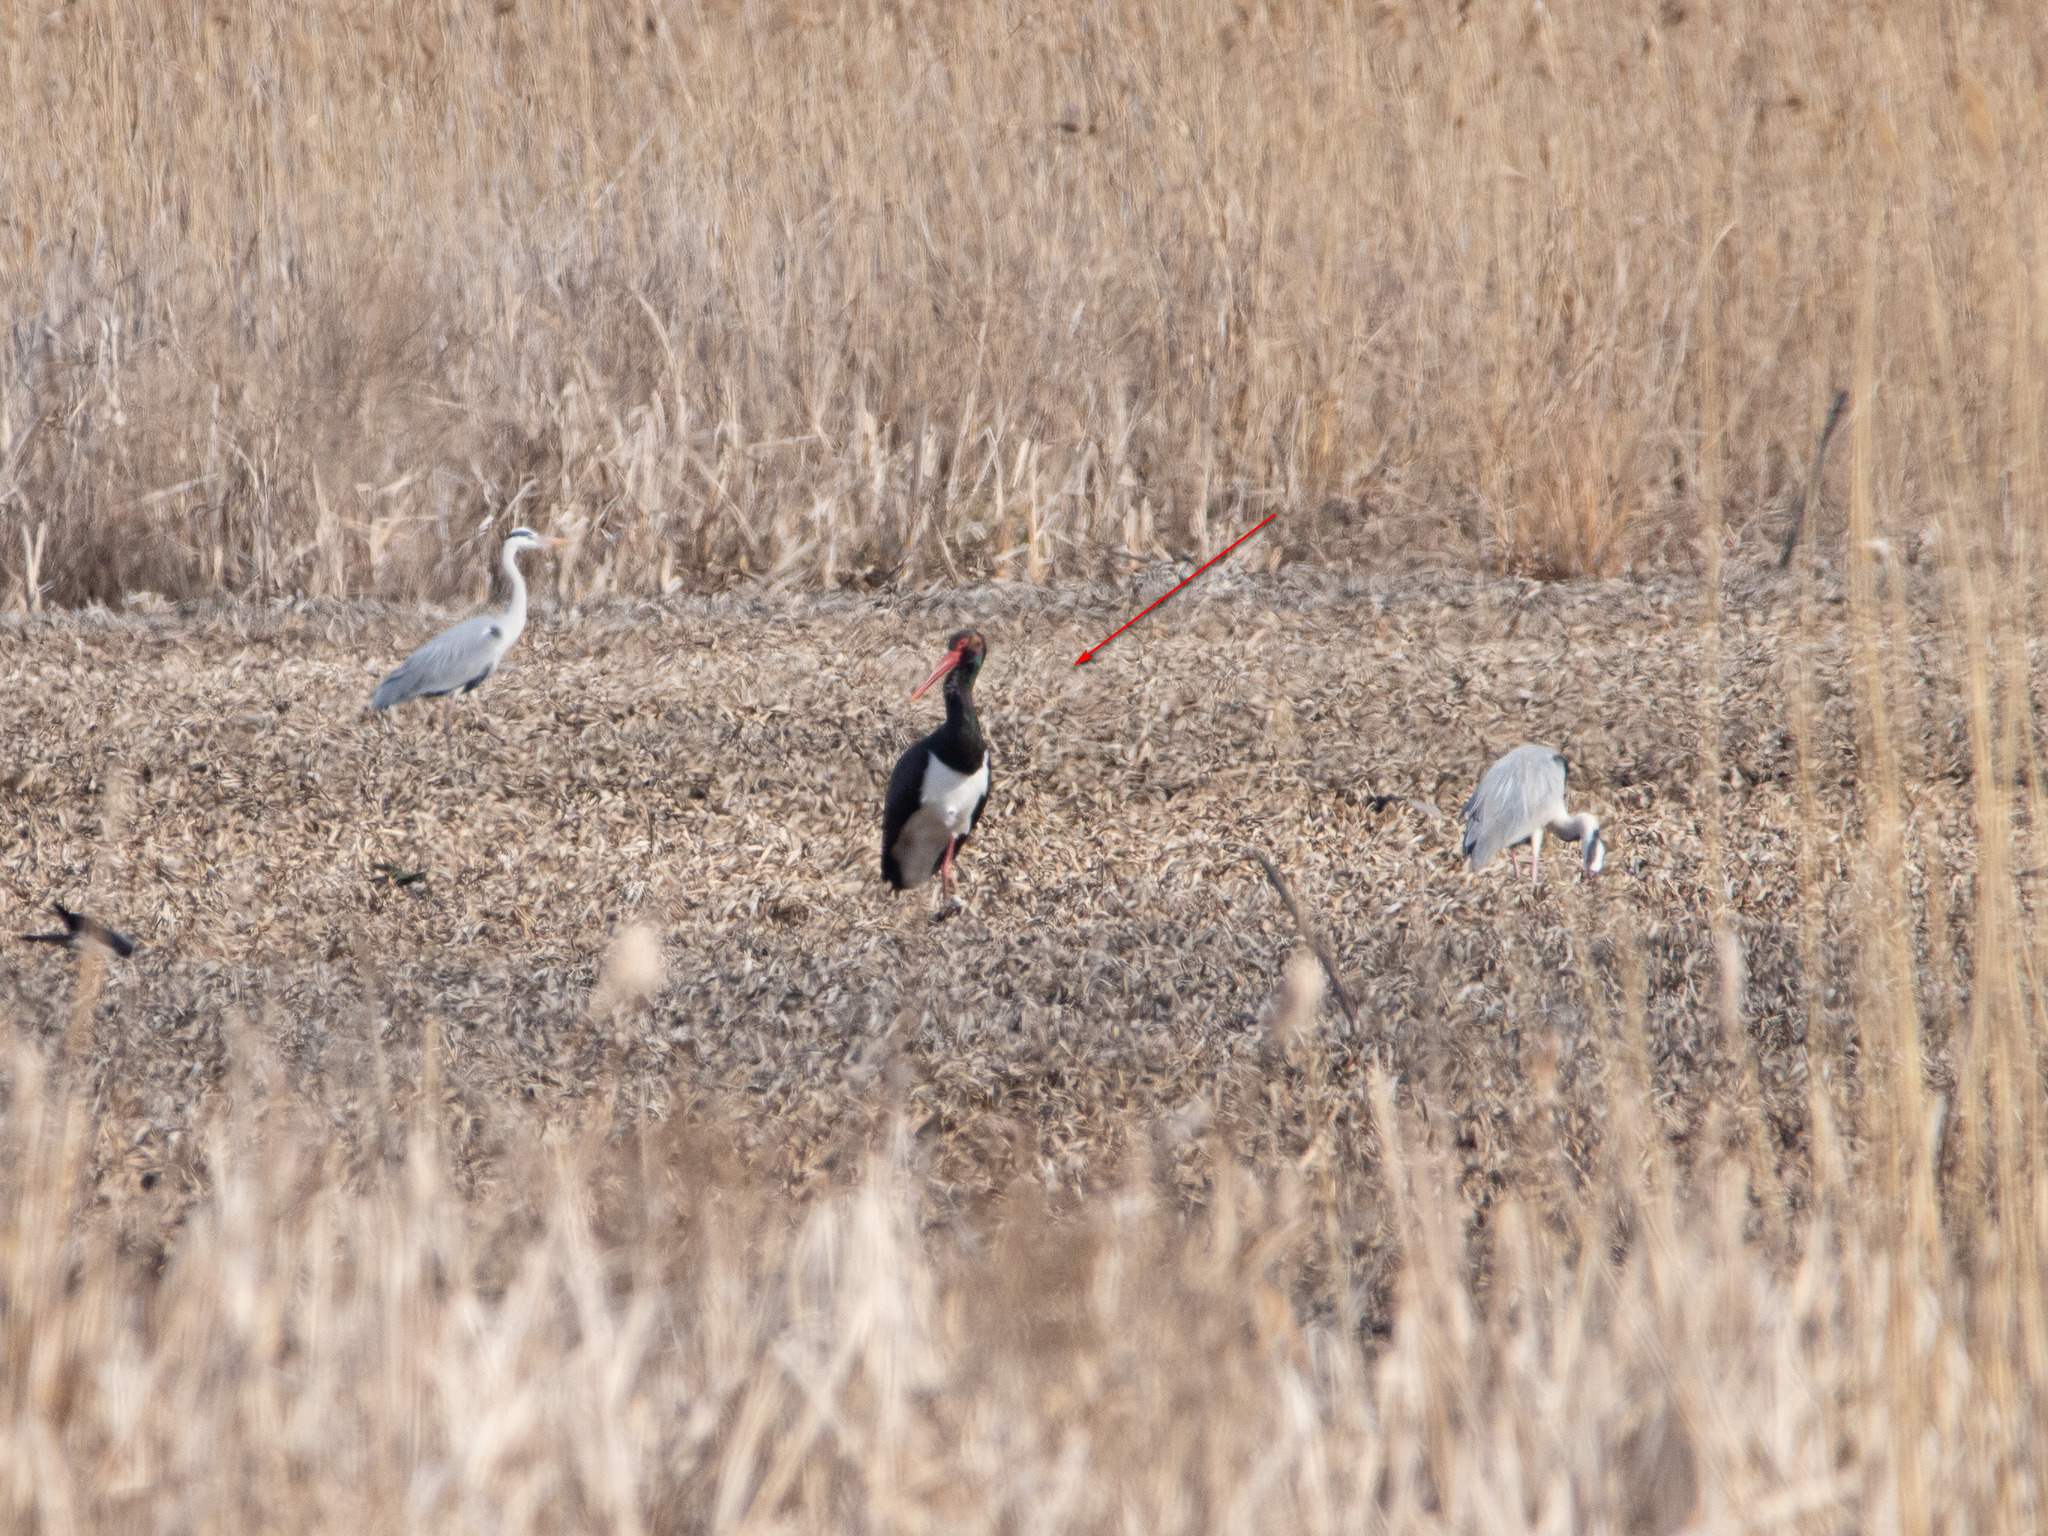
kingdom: Animalia
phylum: Chordata
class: Aves
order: Ciconiiformes
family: Ciconiidae
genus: Ciconia
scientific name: Ciconia nigra
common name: Black stork
